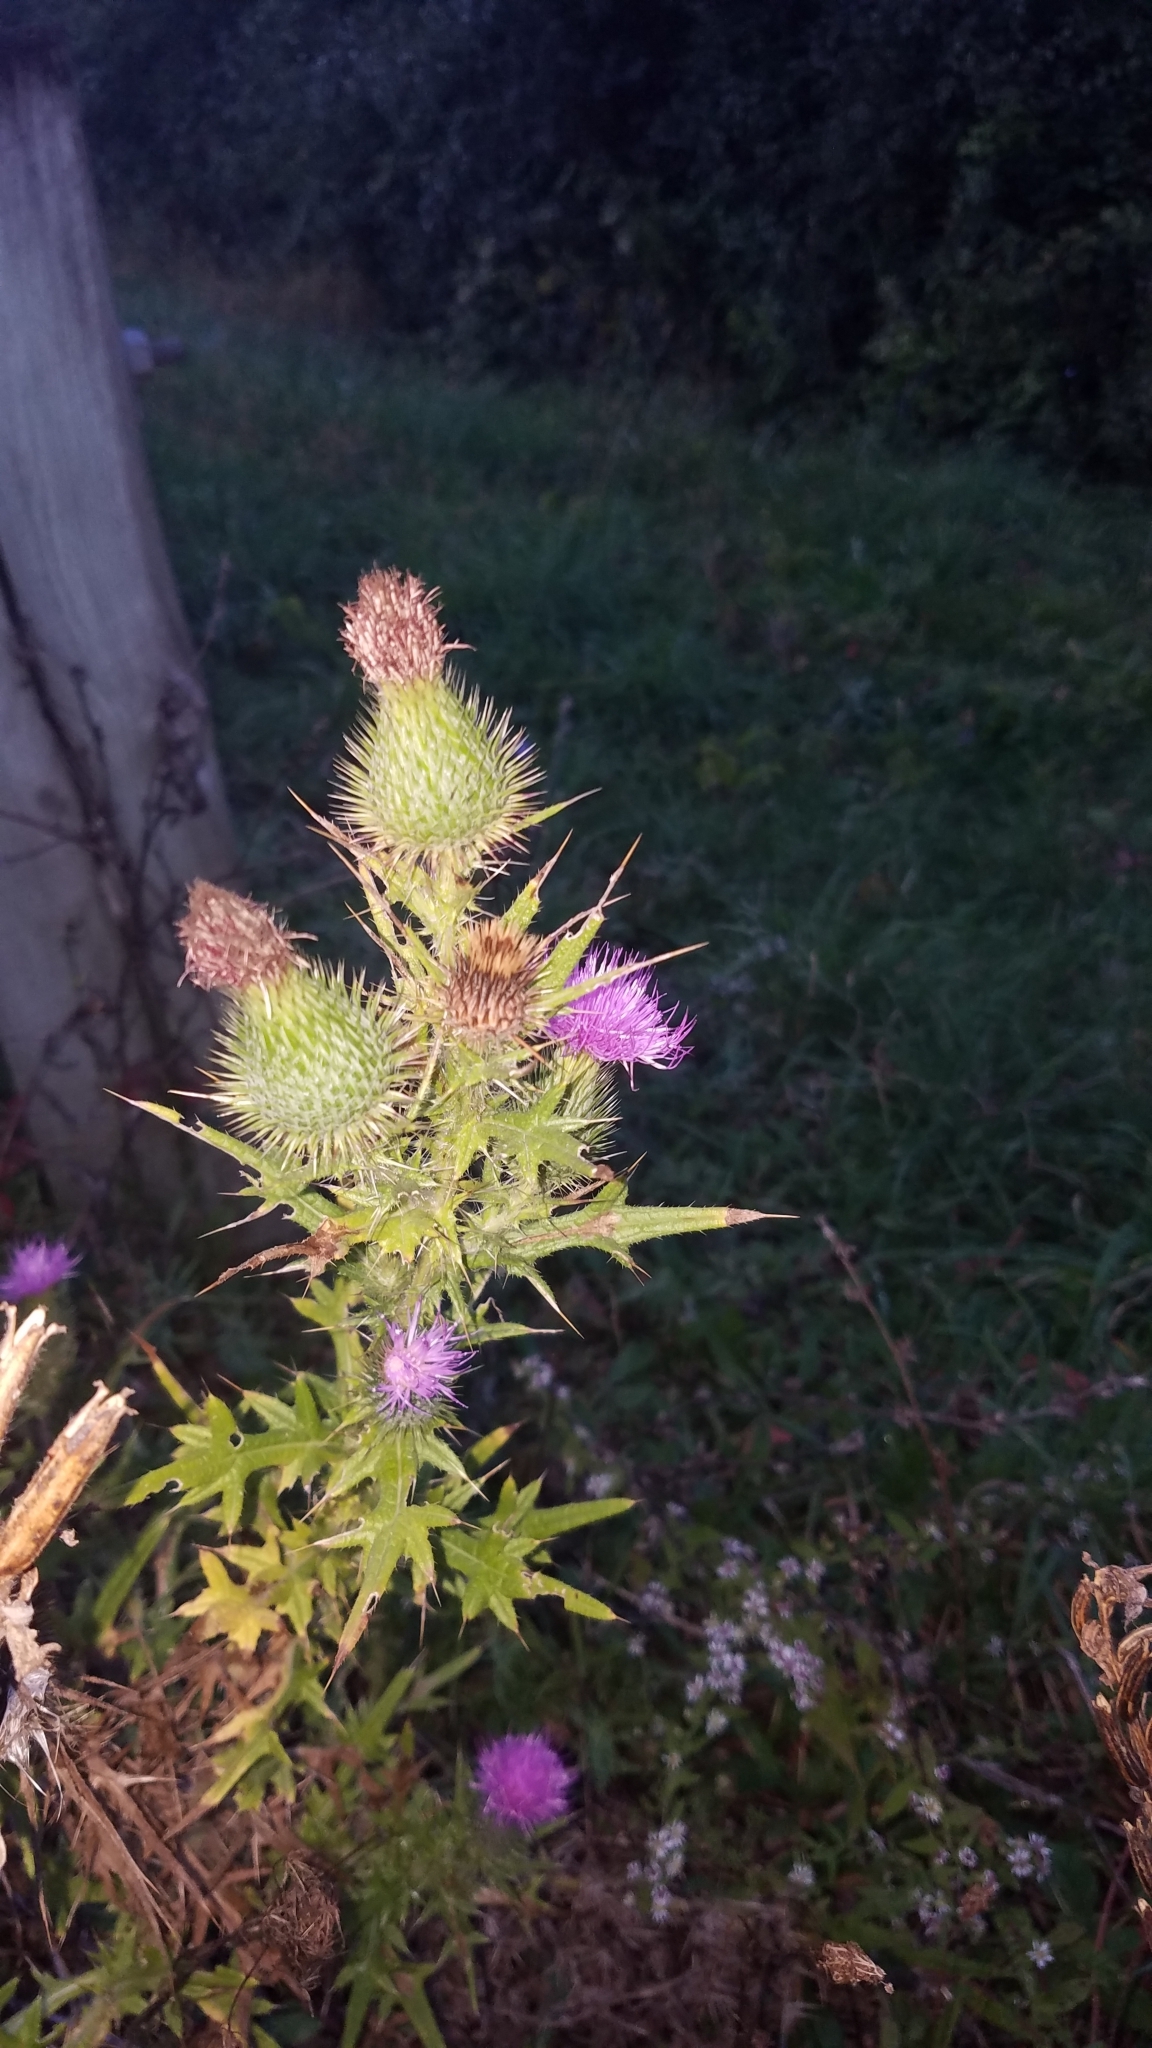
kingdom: Plantae
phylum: Tracheophyta
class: Magnoliopsida
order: Asterales
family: Asteraceae
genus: Cirsium
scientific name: Cirsium vulgare
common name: Bull thistle
